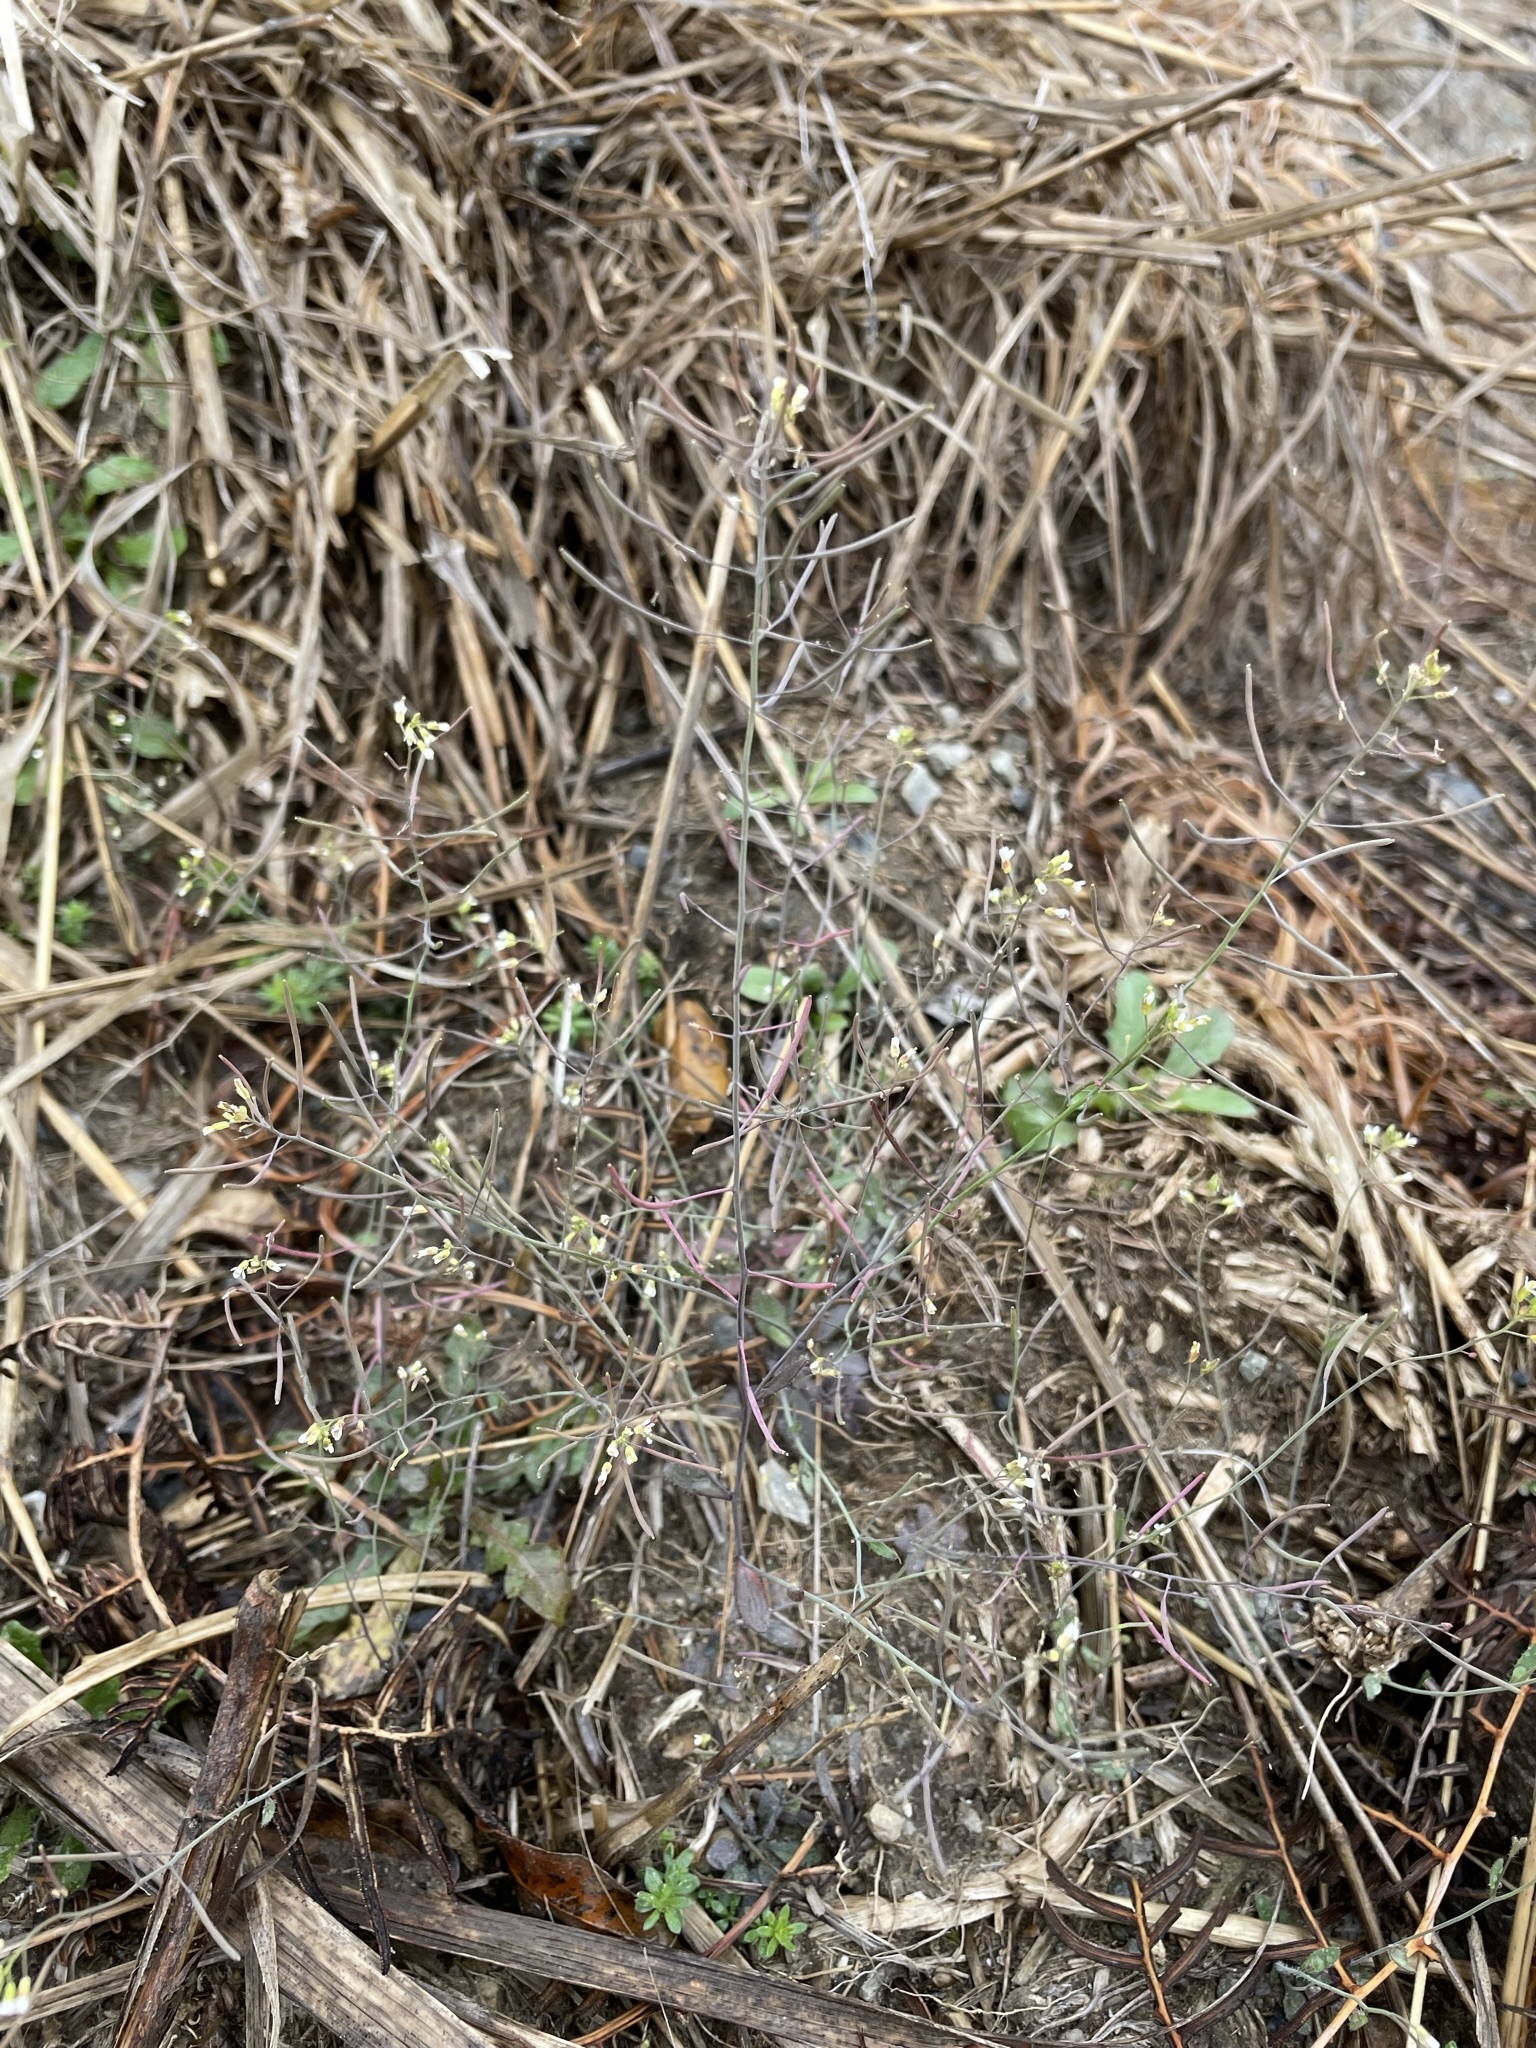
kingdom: Plantae
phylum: Tracheophyta
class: Magnoliopsida
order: Brassicales
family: Brassicaceae
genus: Arabidopsis
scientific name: Arabidopsis thaliana
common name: Thale cress
